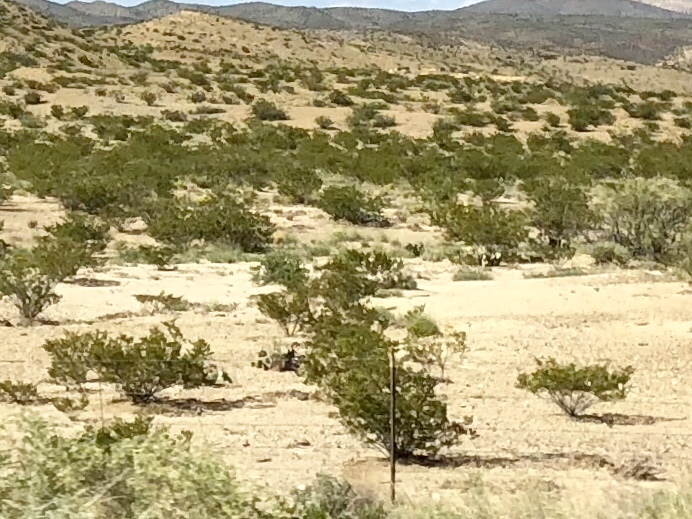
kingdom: Plantae
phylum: Tracheophyta
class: Magnoliopsida
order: Zygophyllales
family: Zygophyllaceae
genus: Larrea
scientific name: Larrea tridentata
